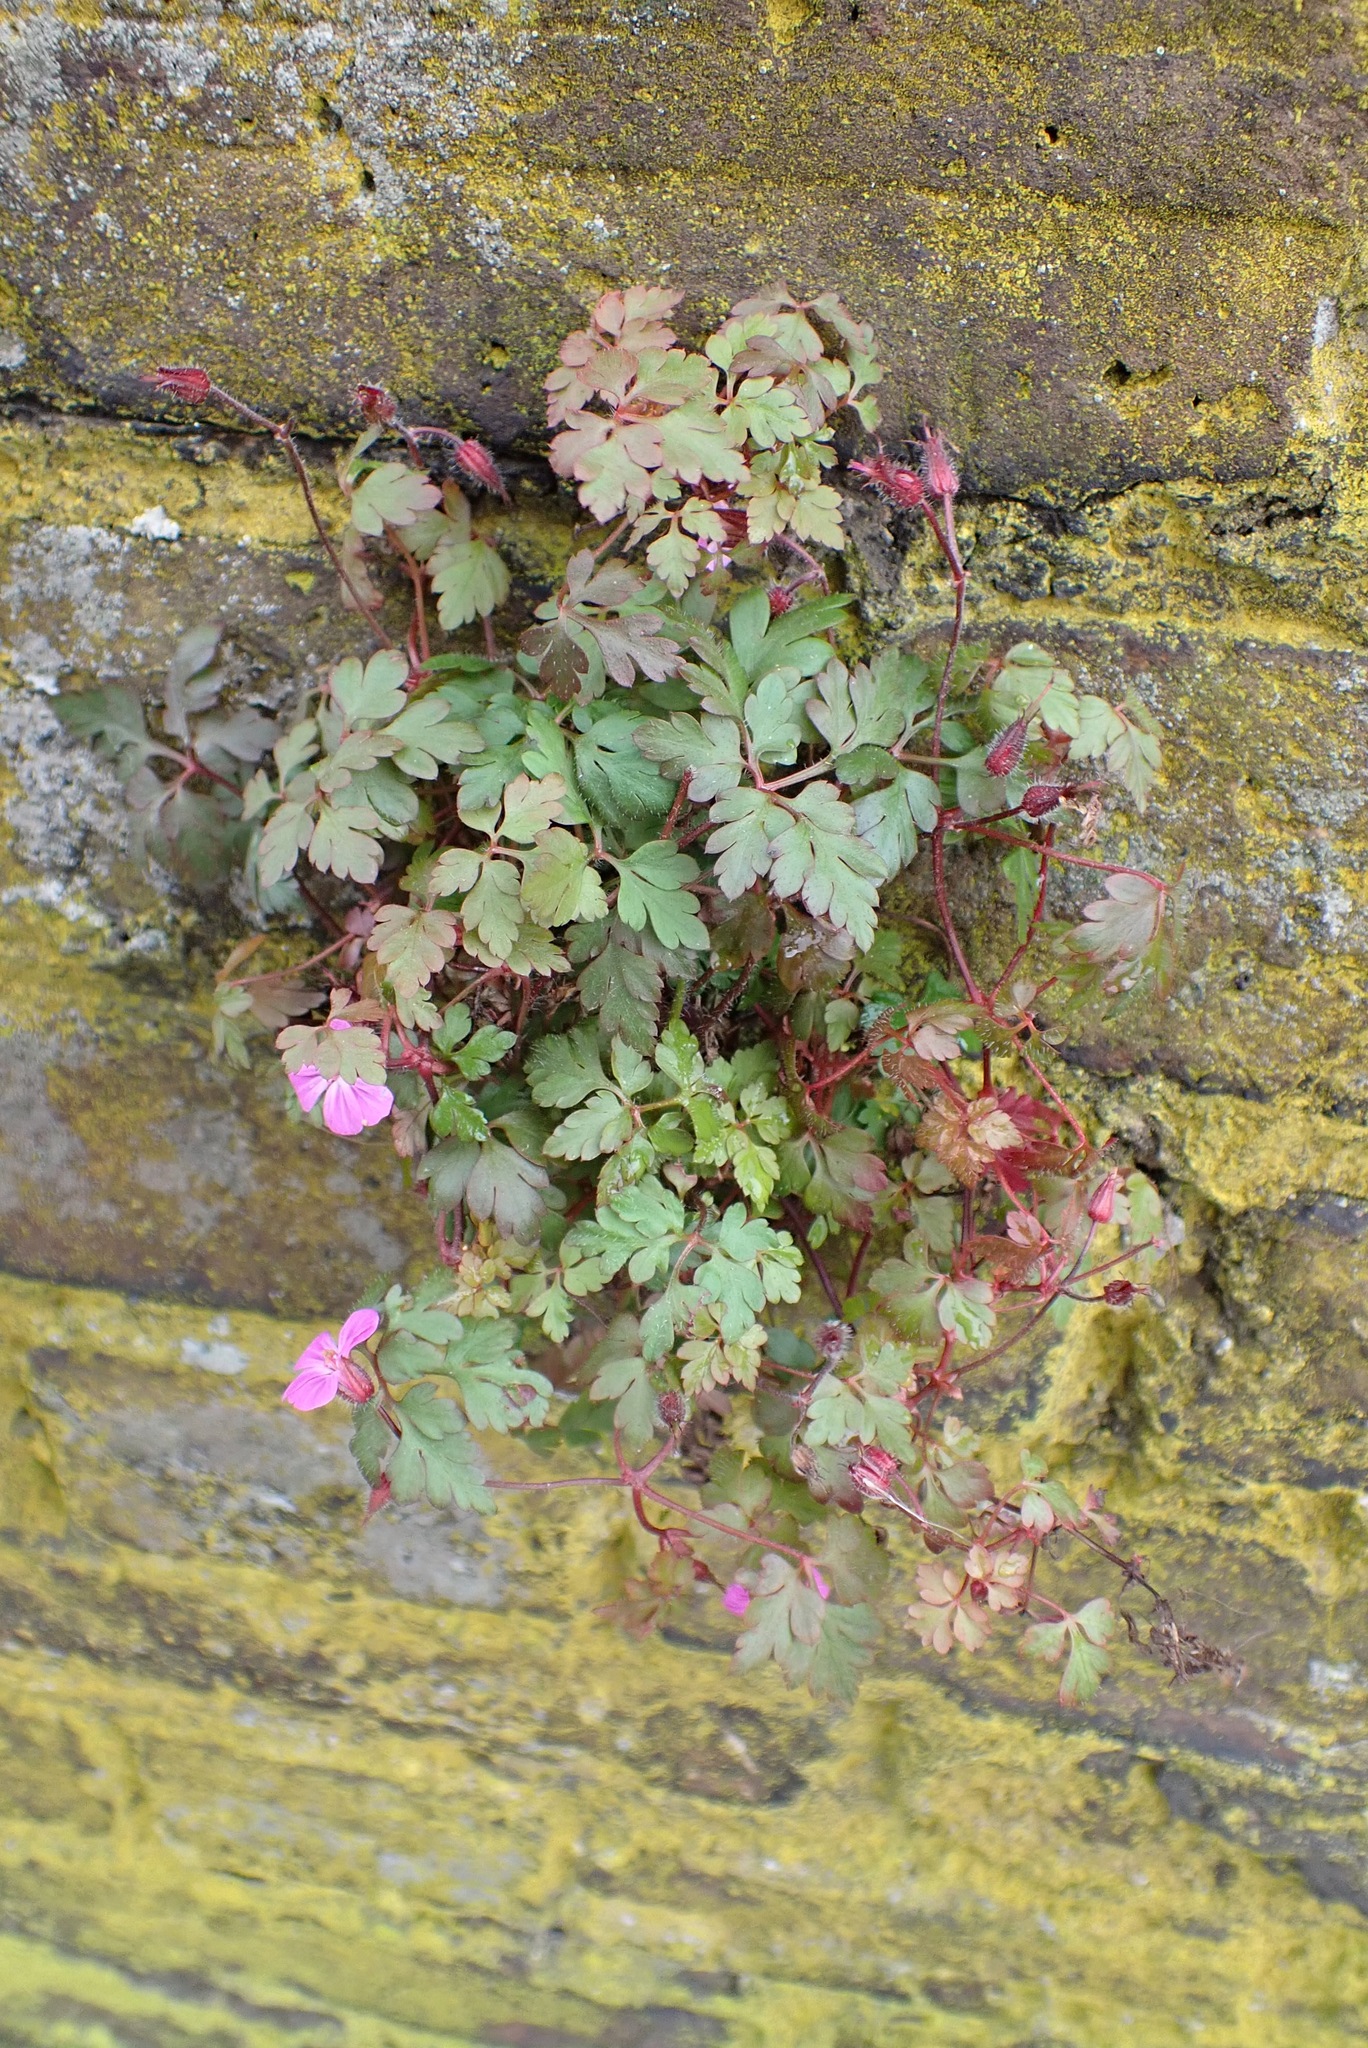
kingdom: Plantae
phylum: Tracheophyta
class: Magnoliopsida
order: Geraniales
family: Geraniaceae
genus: Geranium
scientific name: Geranium robertianum
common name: Herb-robert
